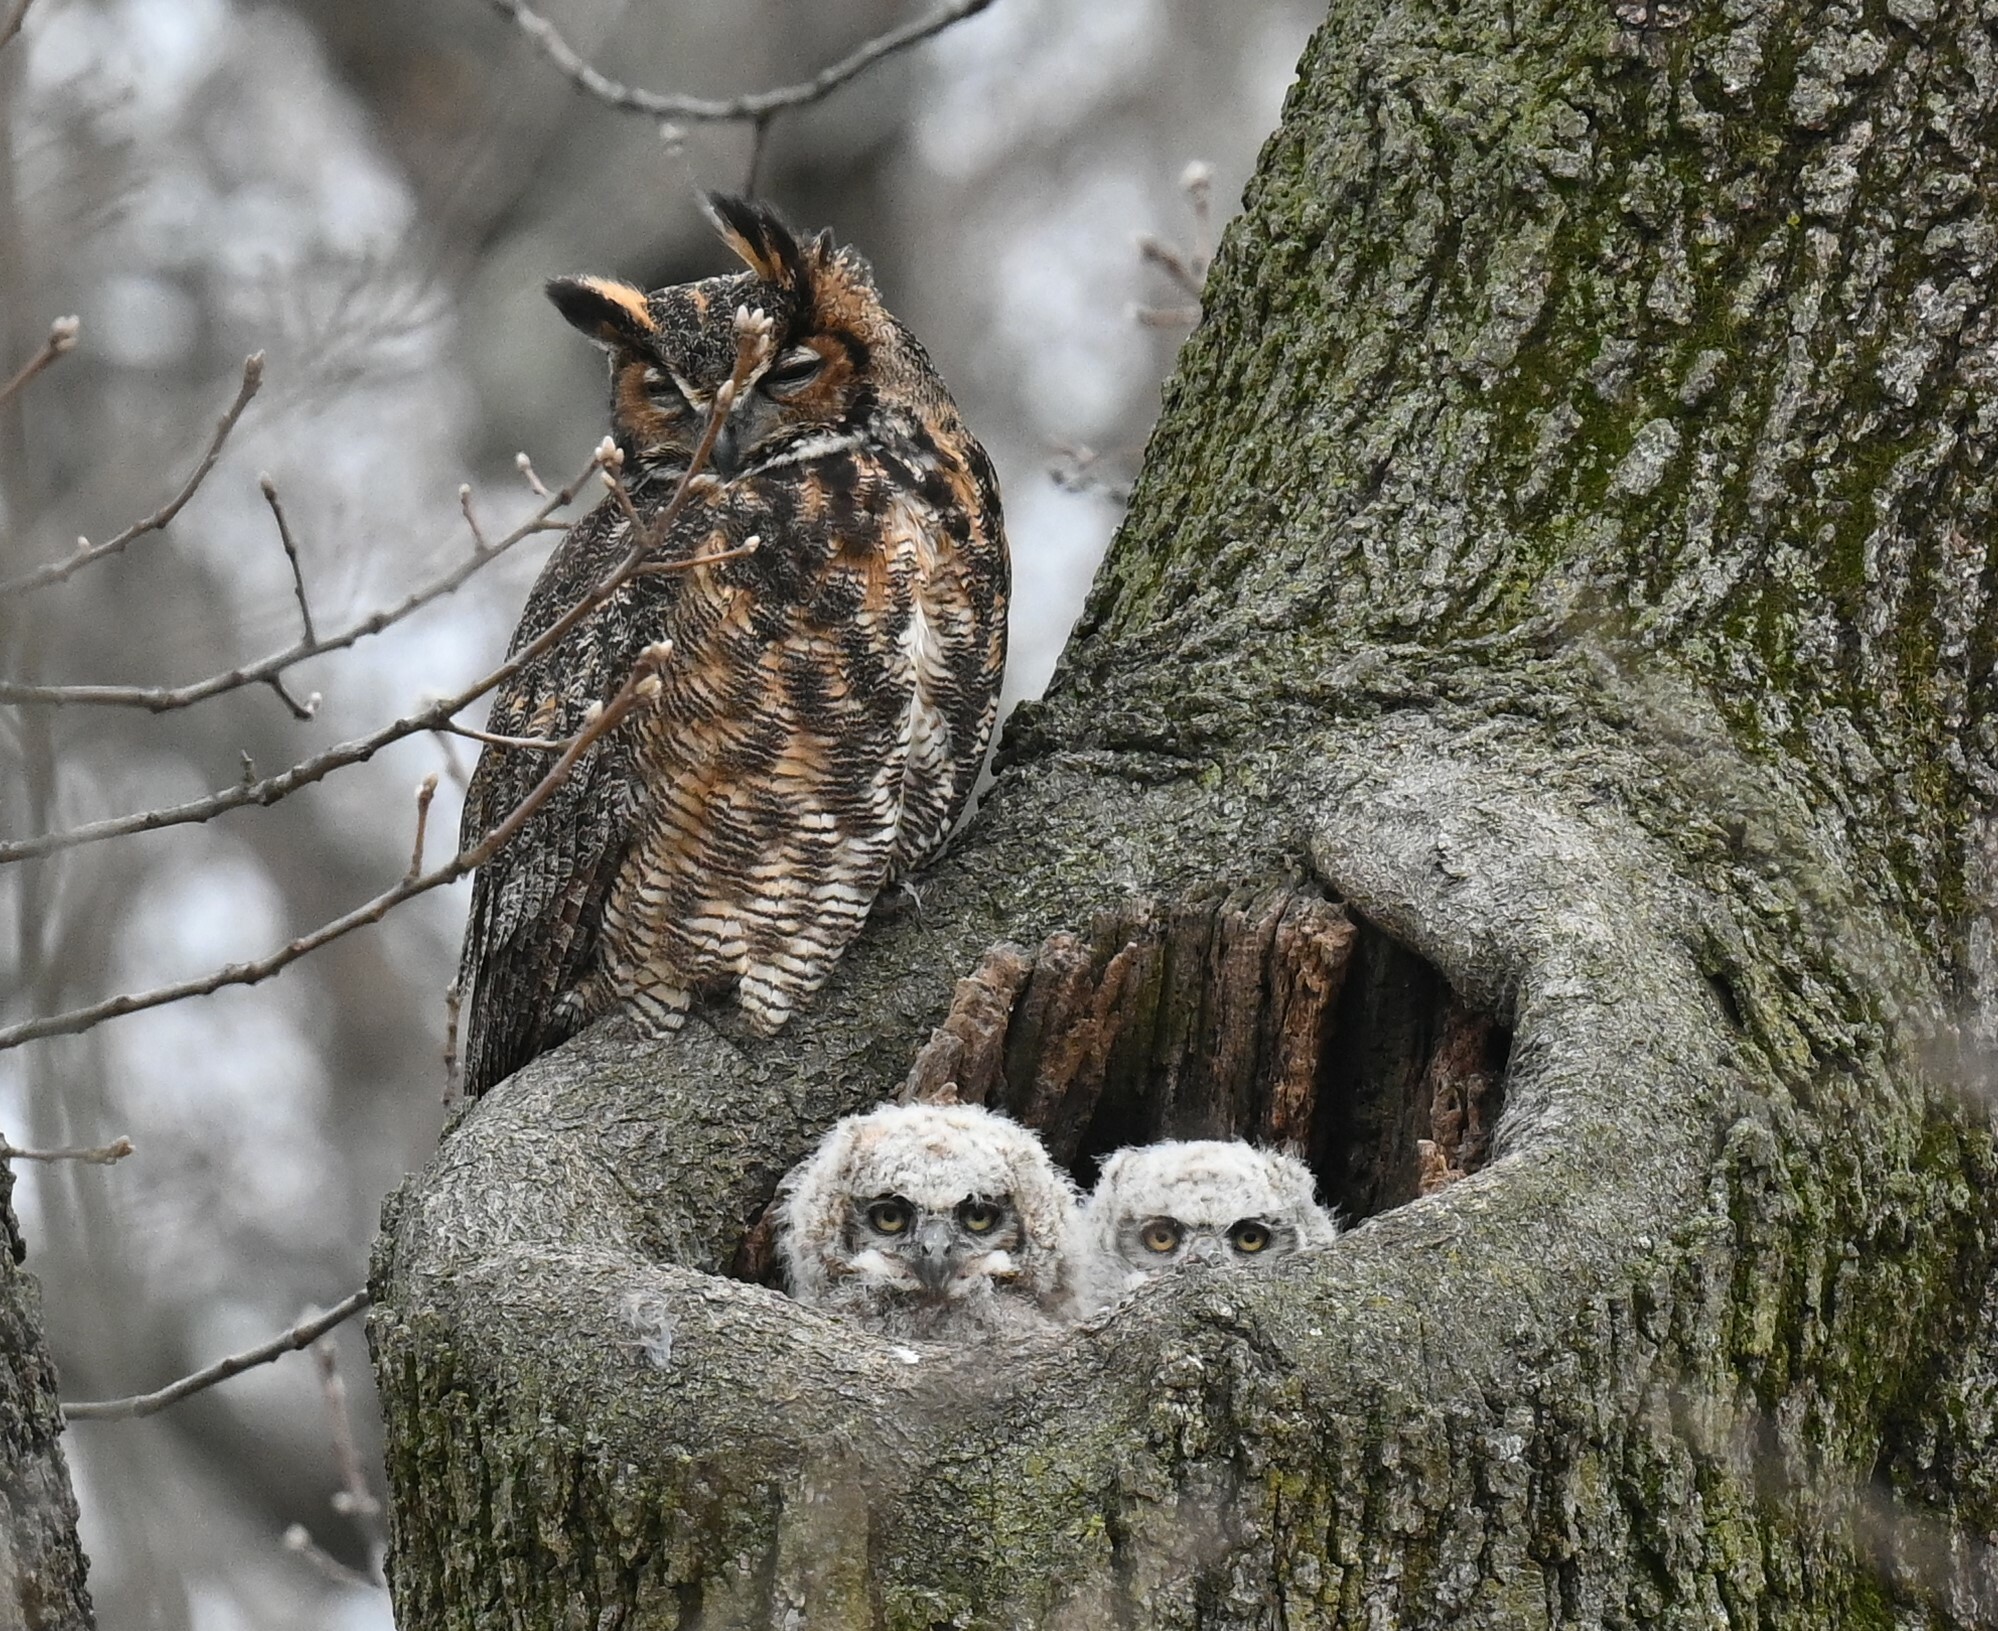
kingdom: Animalia
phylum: Chordata
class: Aves
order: Strigiformes
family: Strigidae
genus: Bubo
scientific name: Bubo virginianus
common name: Great horned owl
